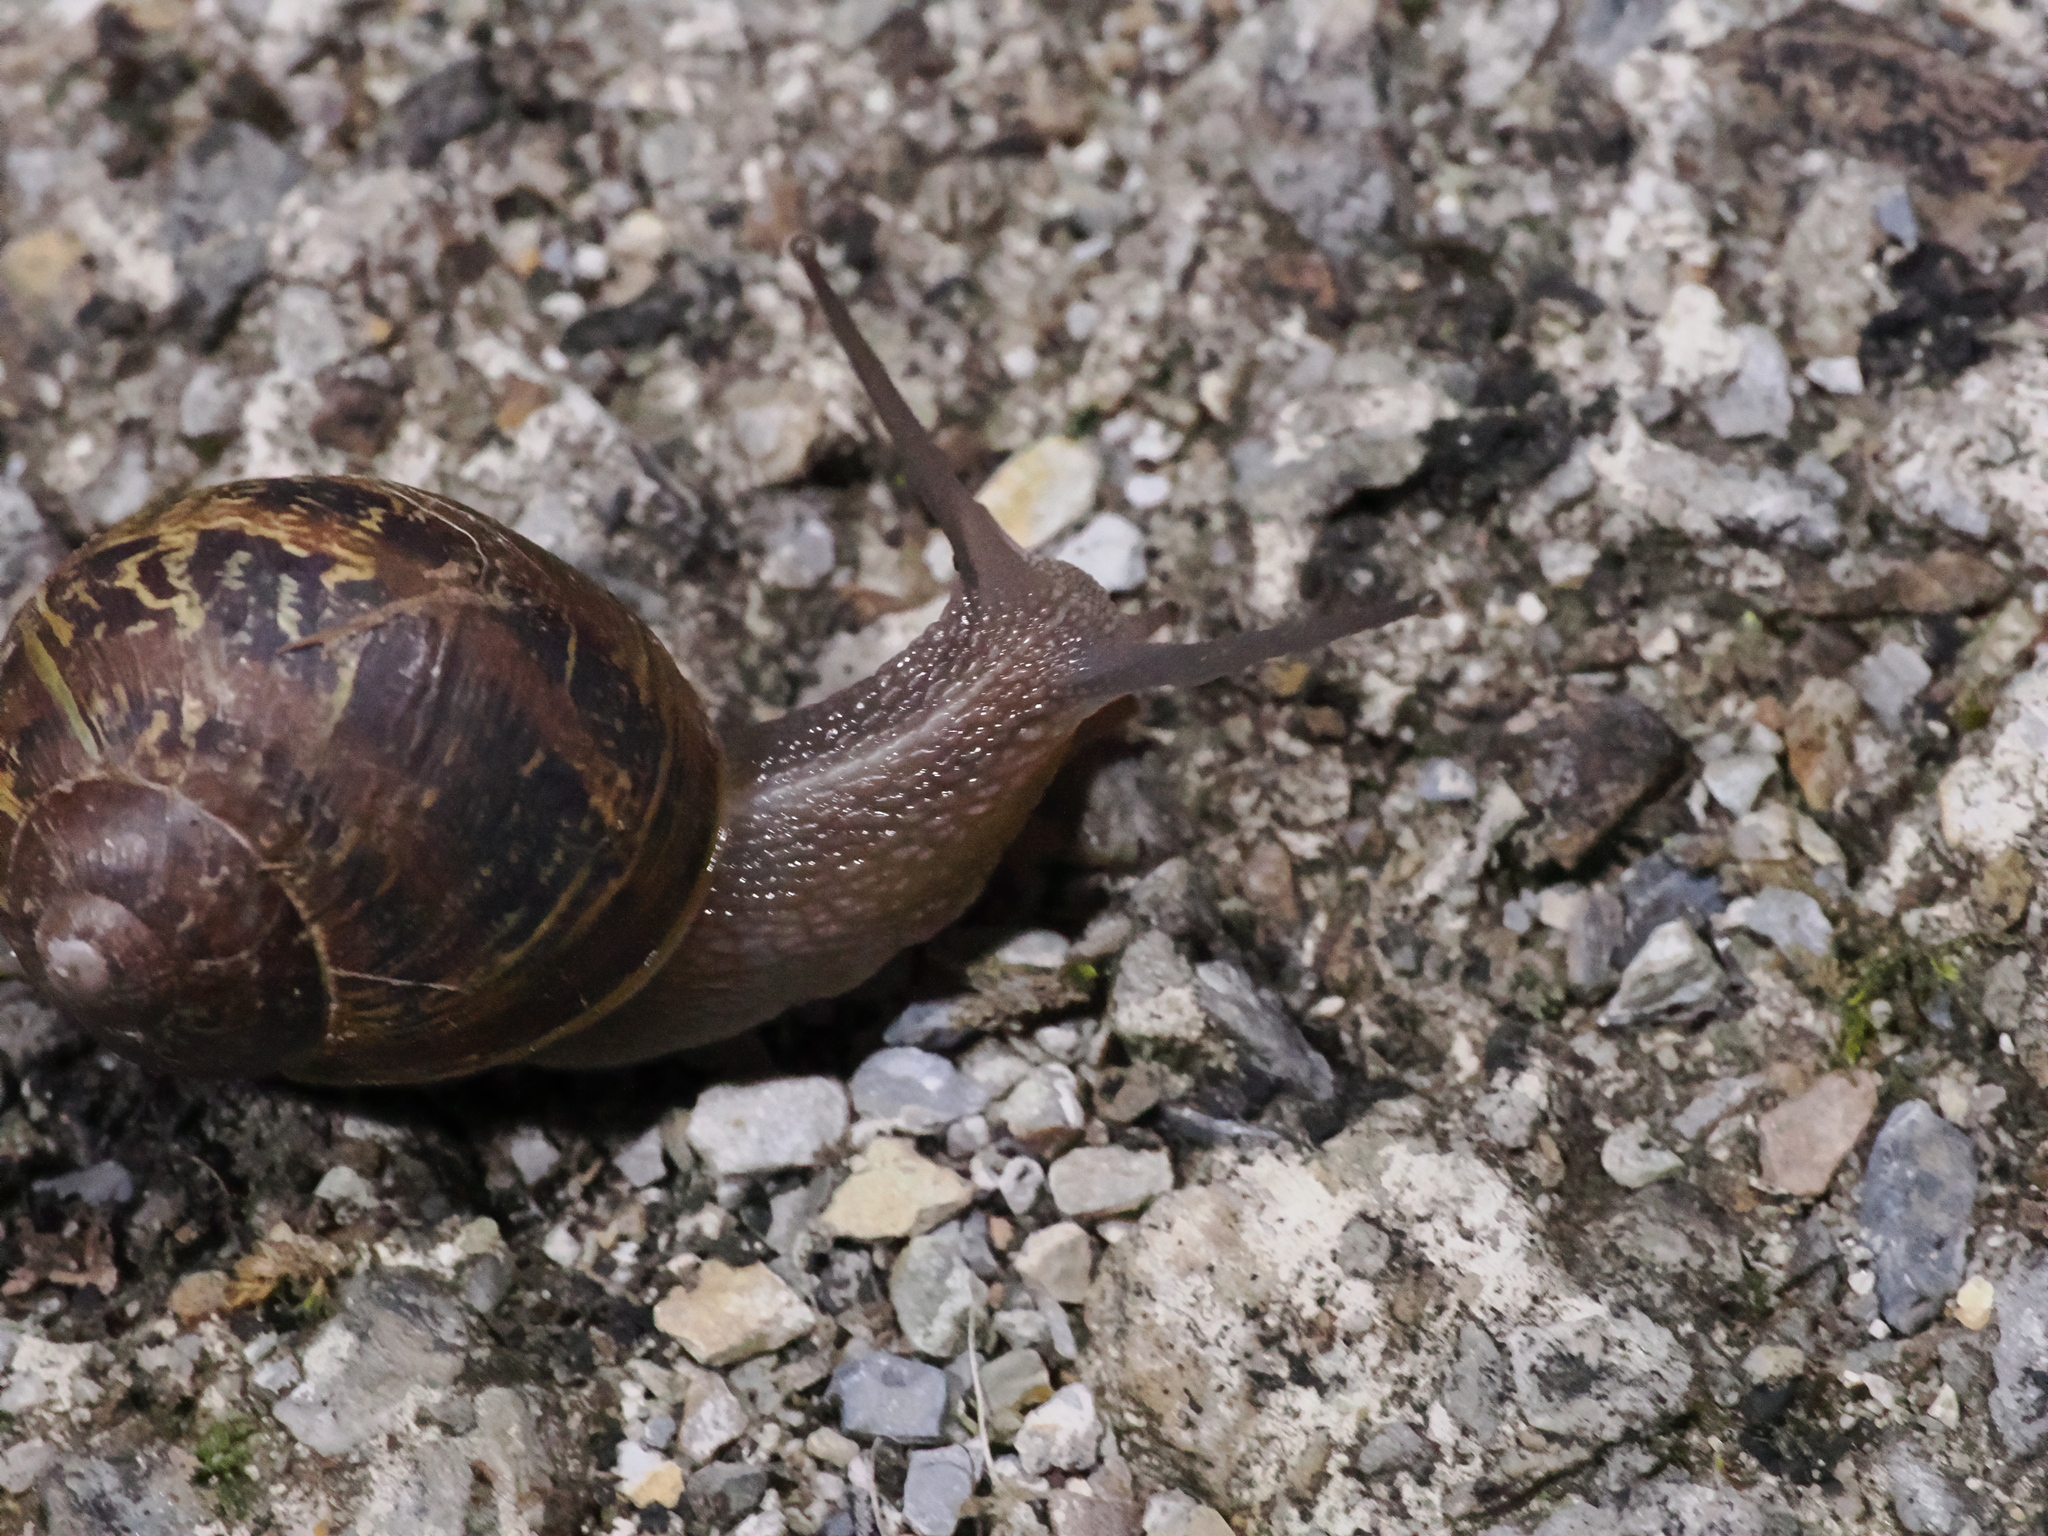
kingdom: Animalia
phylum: Mollusca
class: Gastropoda
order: Stylommatophora
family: Helicidae
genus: Cornu
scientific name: Cornu aspersum
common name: Brown garden snail
